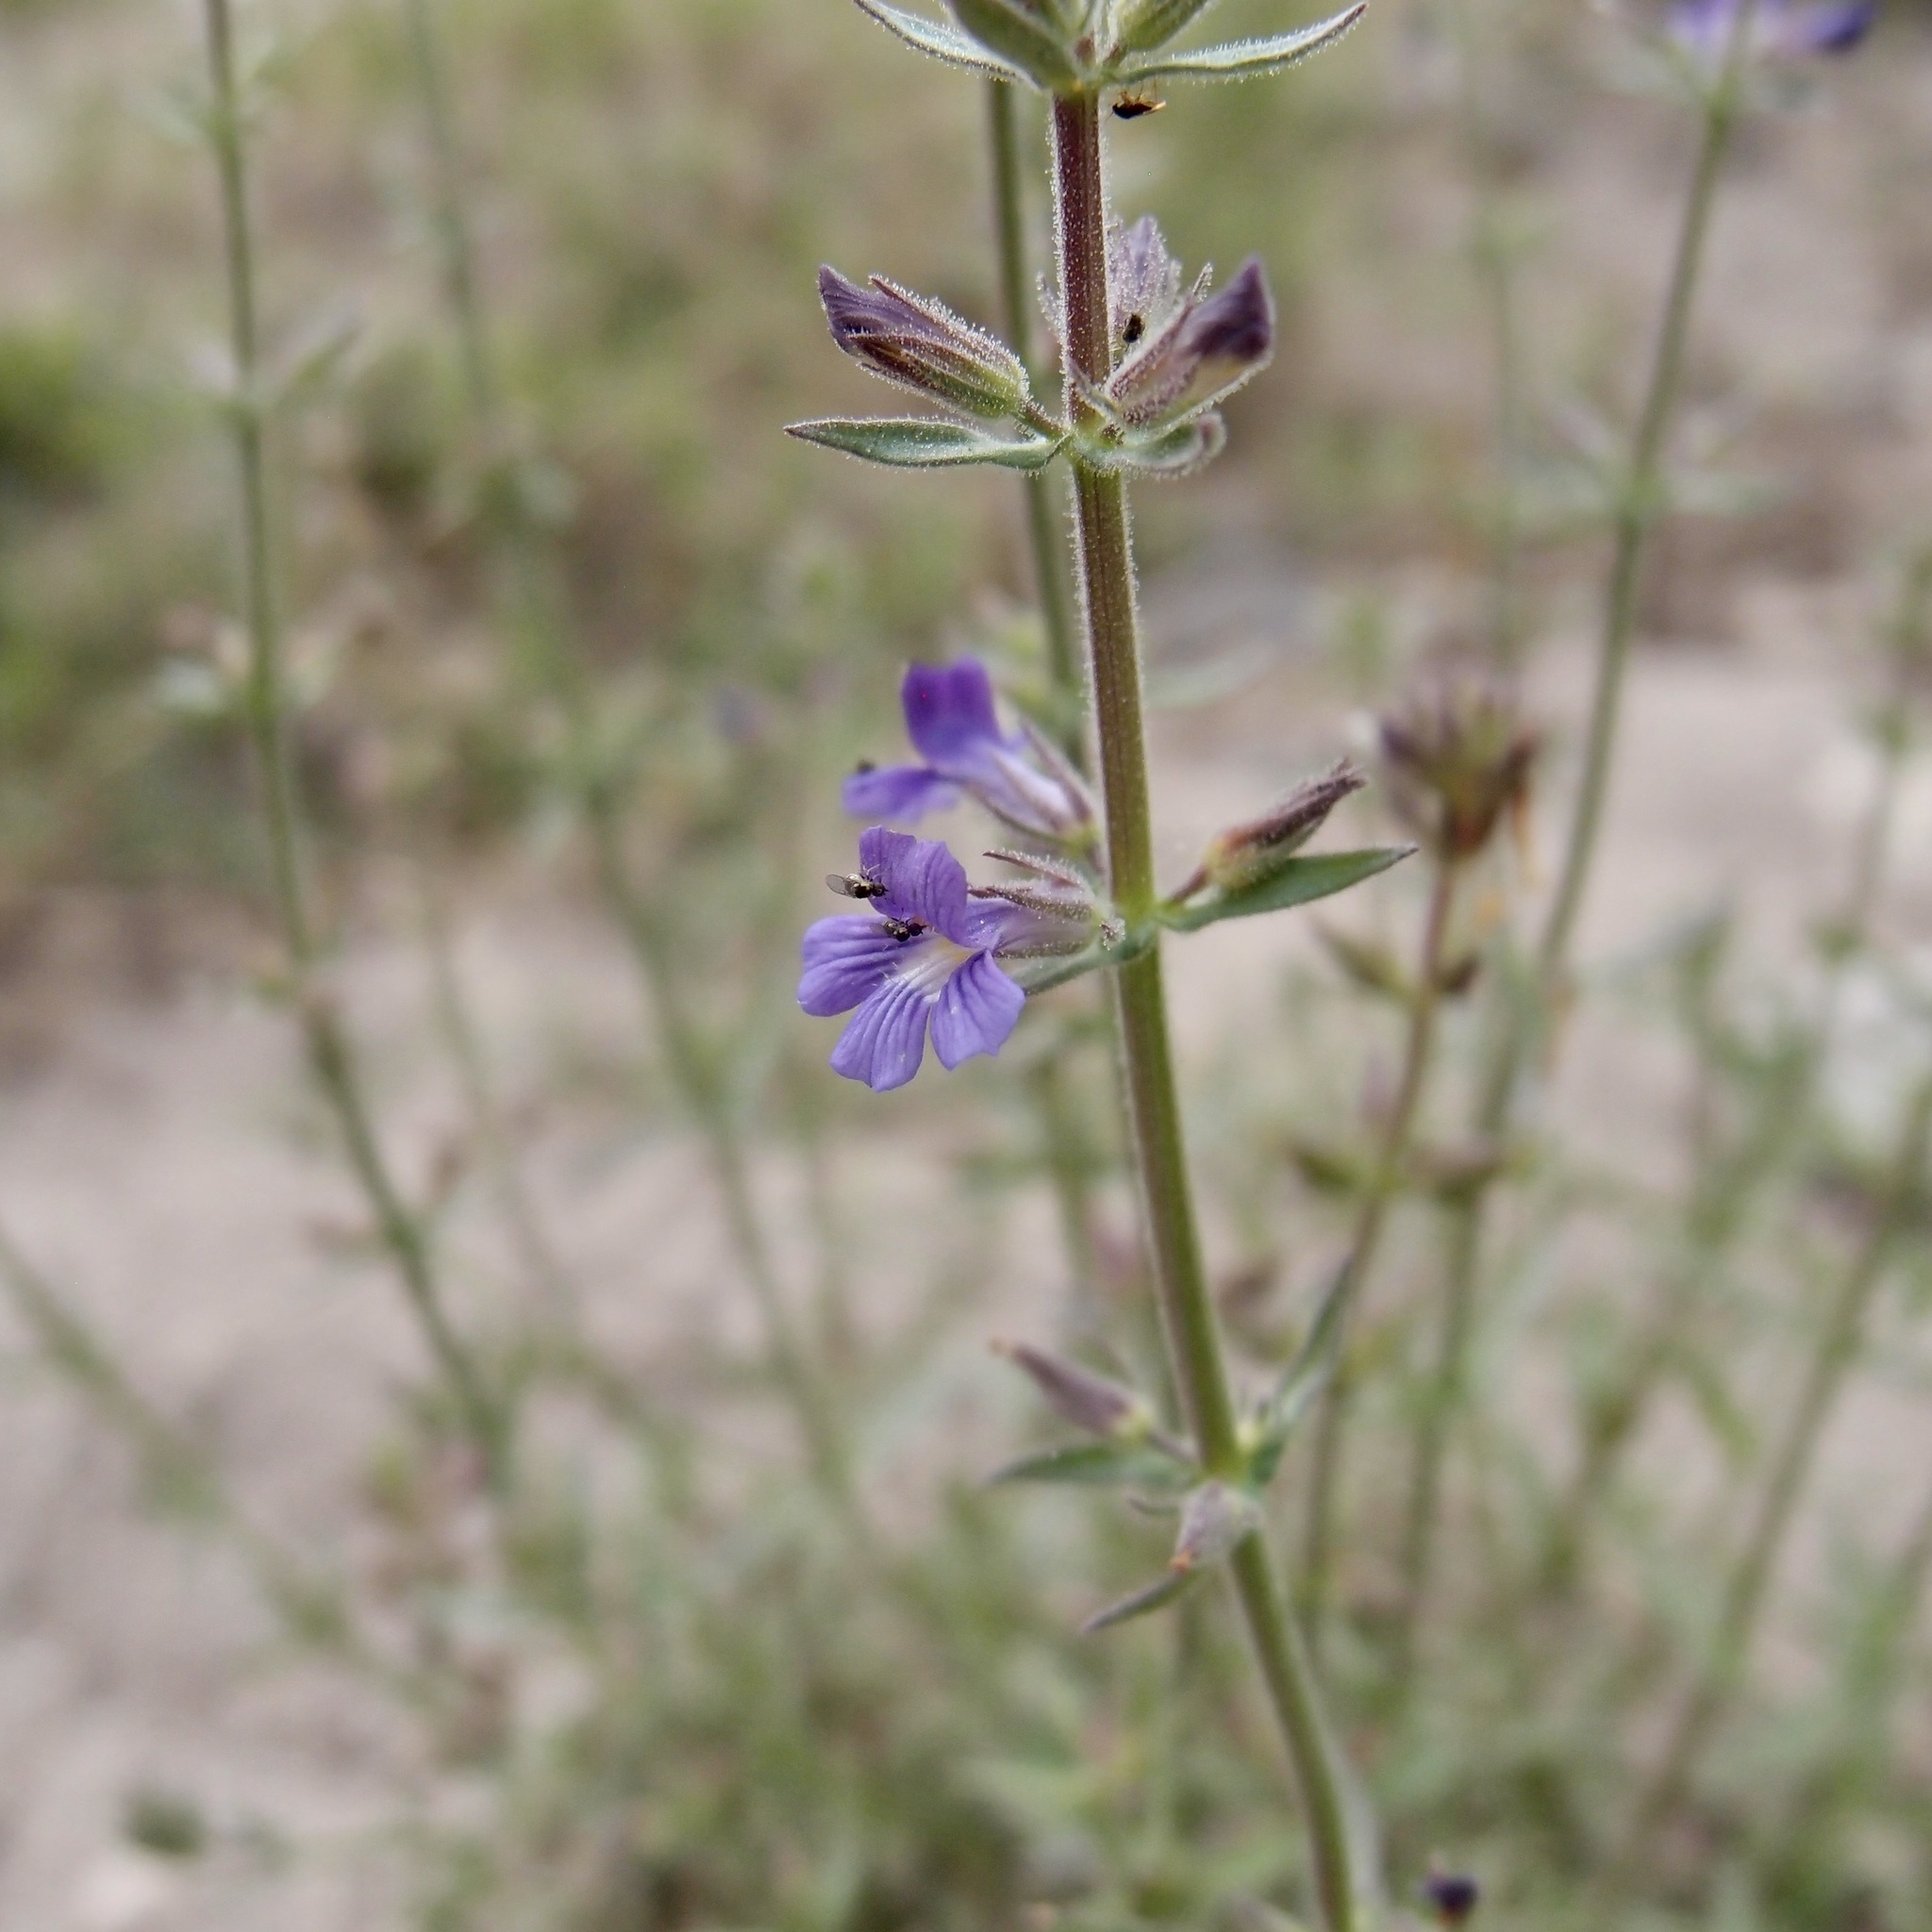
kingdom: Plantae
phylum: Tracheophyta
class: Magnoliopsida
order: Lamiales
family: Plantaginaceae
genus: Stemodia
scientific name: Stemodia durantifolia
